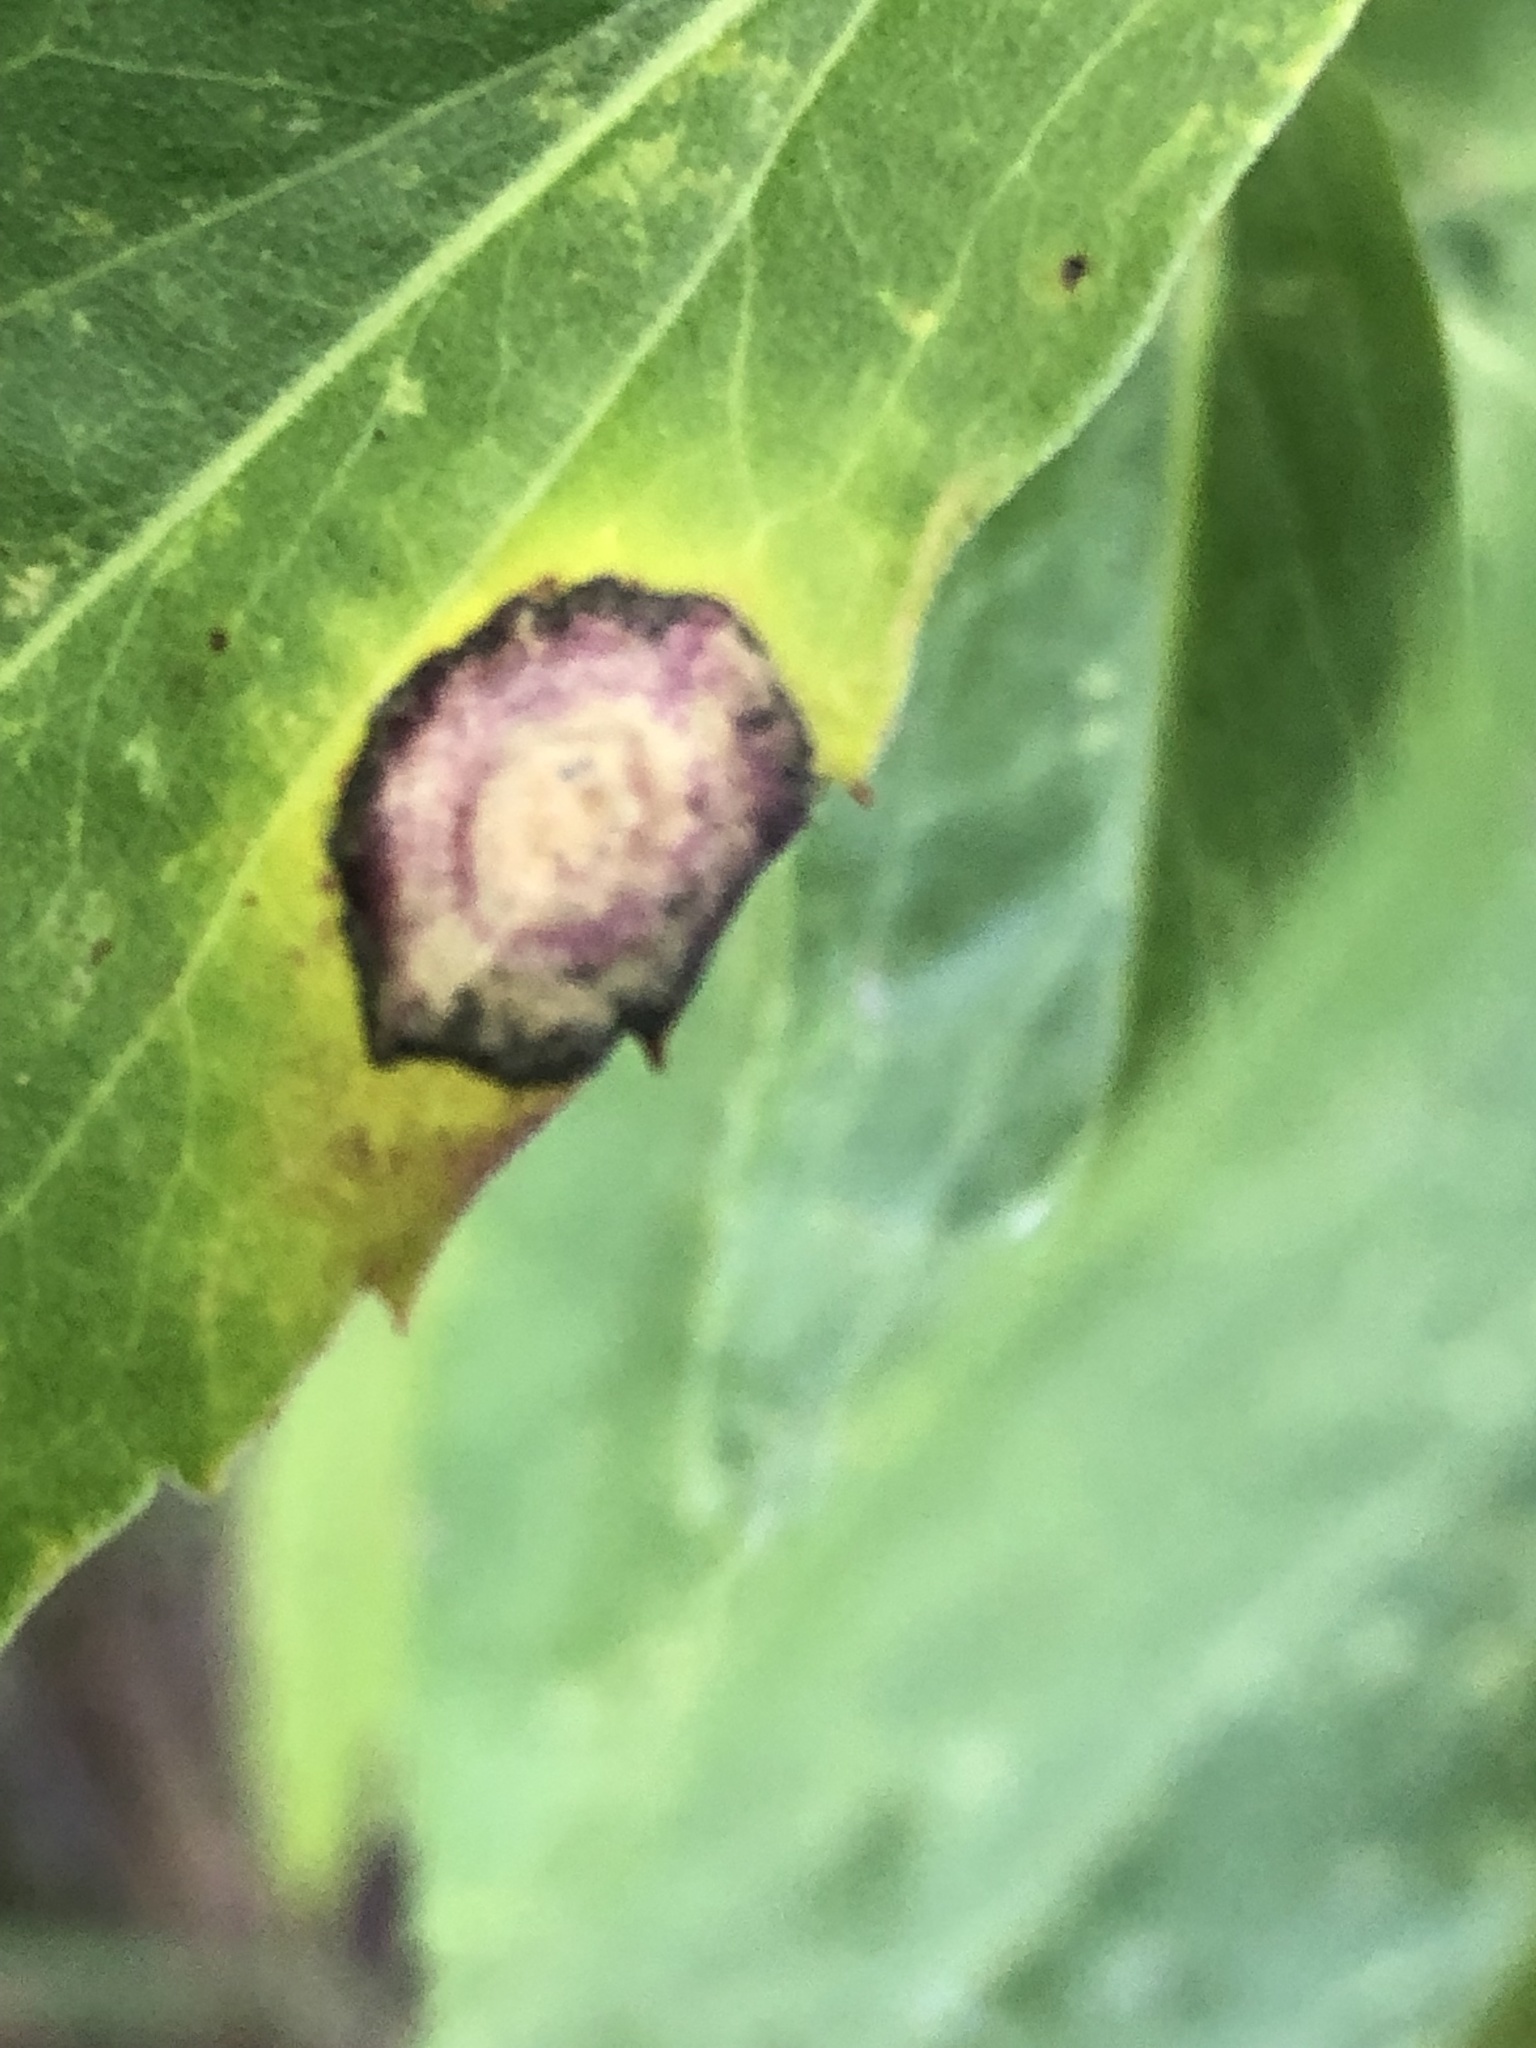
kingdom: Animalia
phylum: Arthropoda
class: Insecta
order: Diptera
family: Cecidomyiidae
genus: Asteromyia
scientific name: Asteromyia carbonifera
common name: Carbonifera goldenrod gall midge
